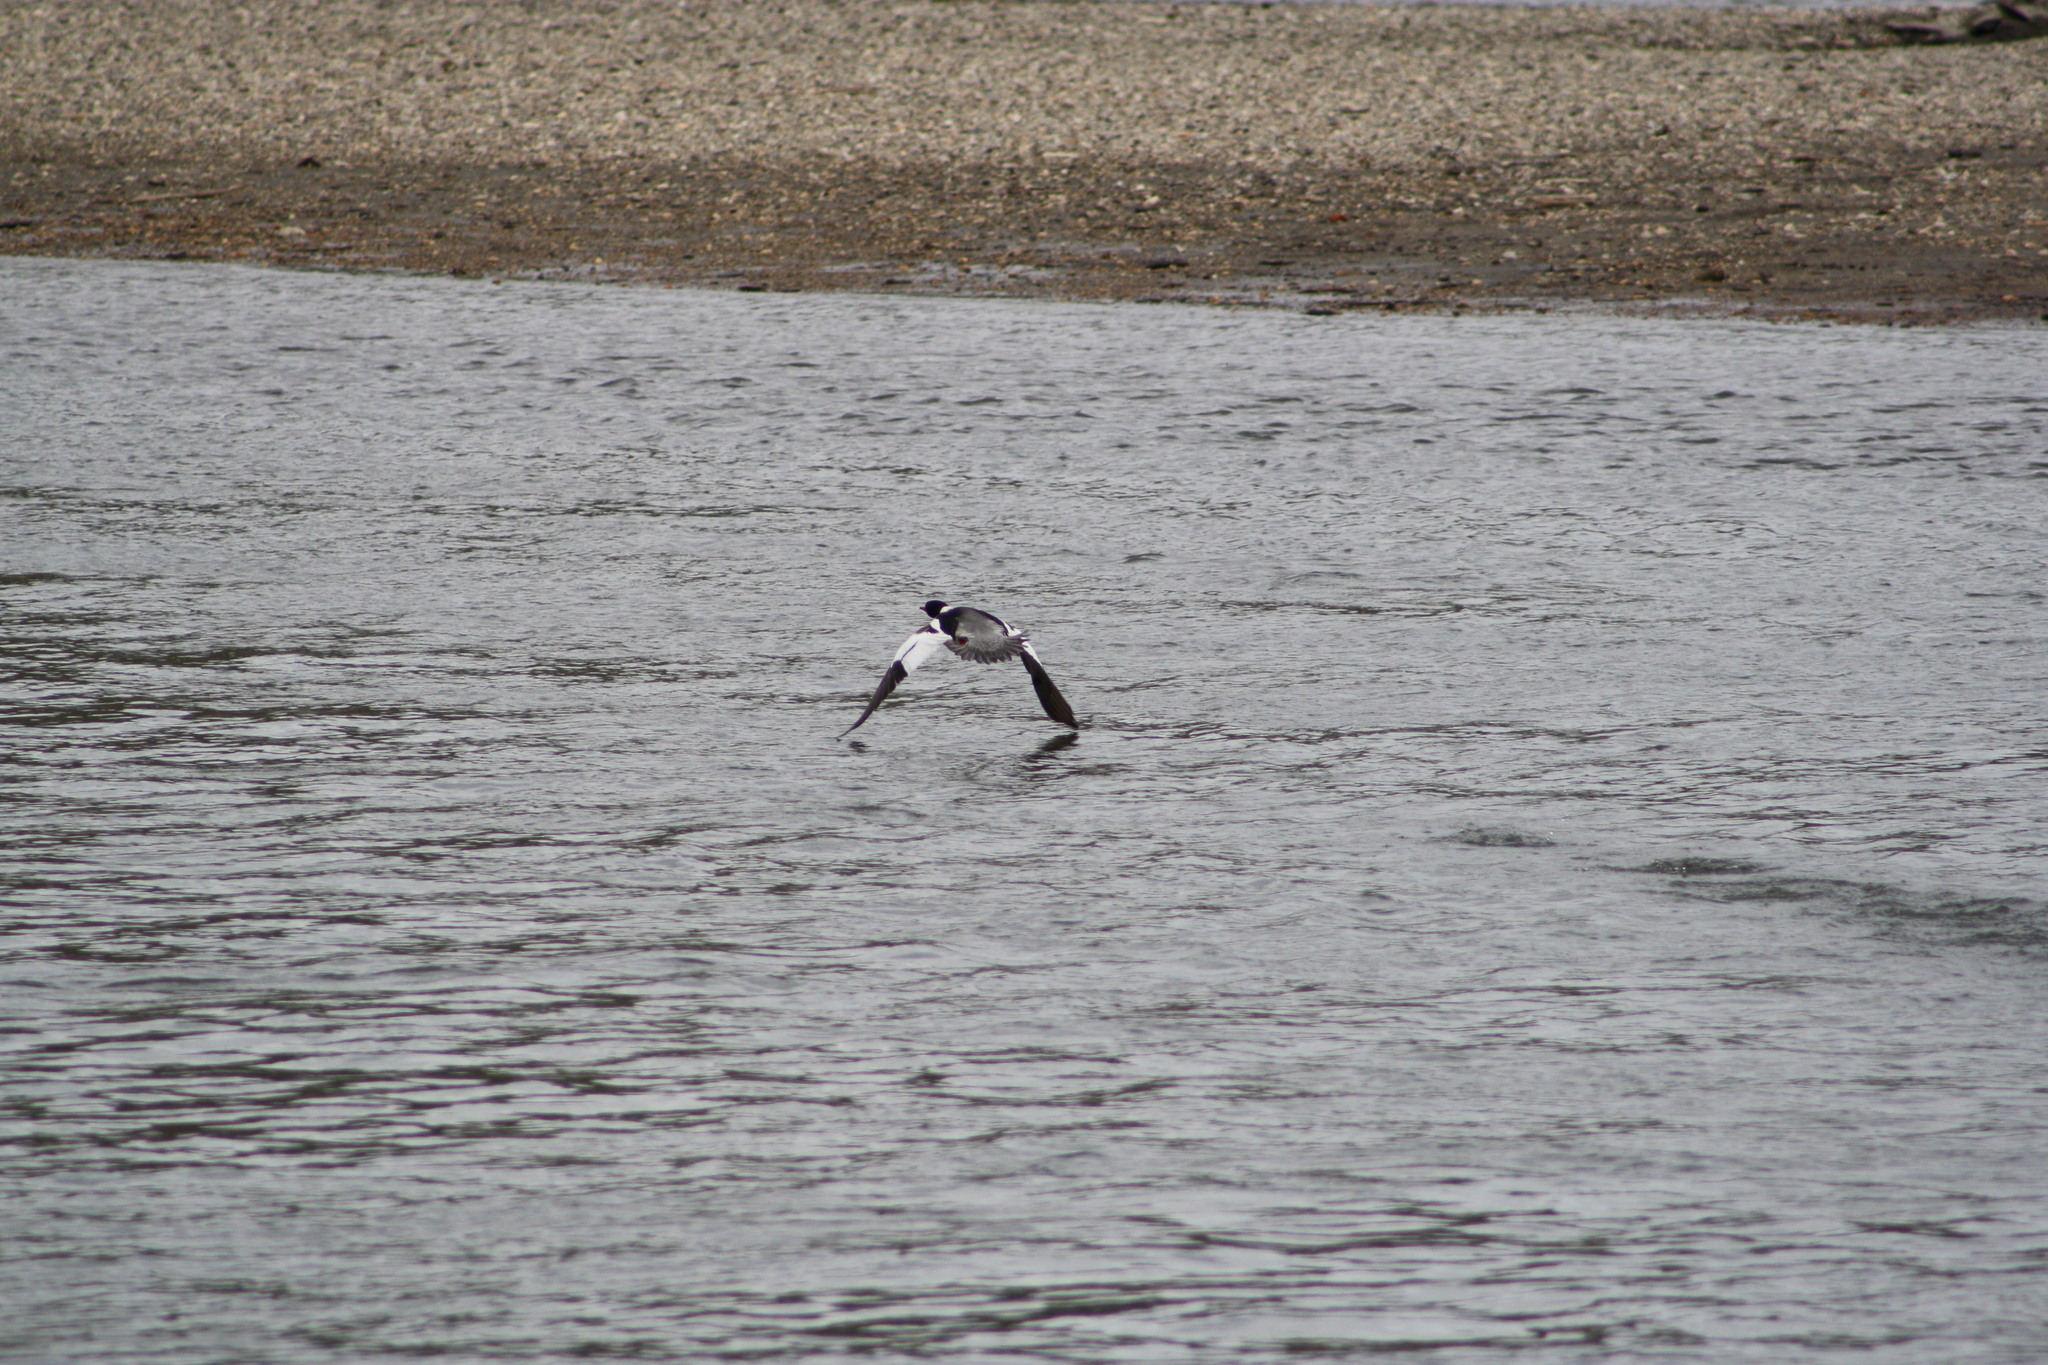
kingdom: Animalia
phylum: Chordata
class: Aves
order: Anseriformes
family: Anatidae
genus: Mergus
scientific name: Mergus merganser
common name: Common merganser
